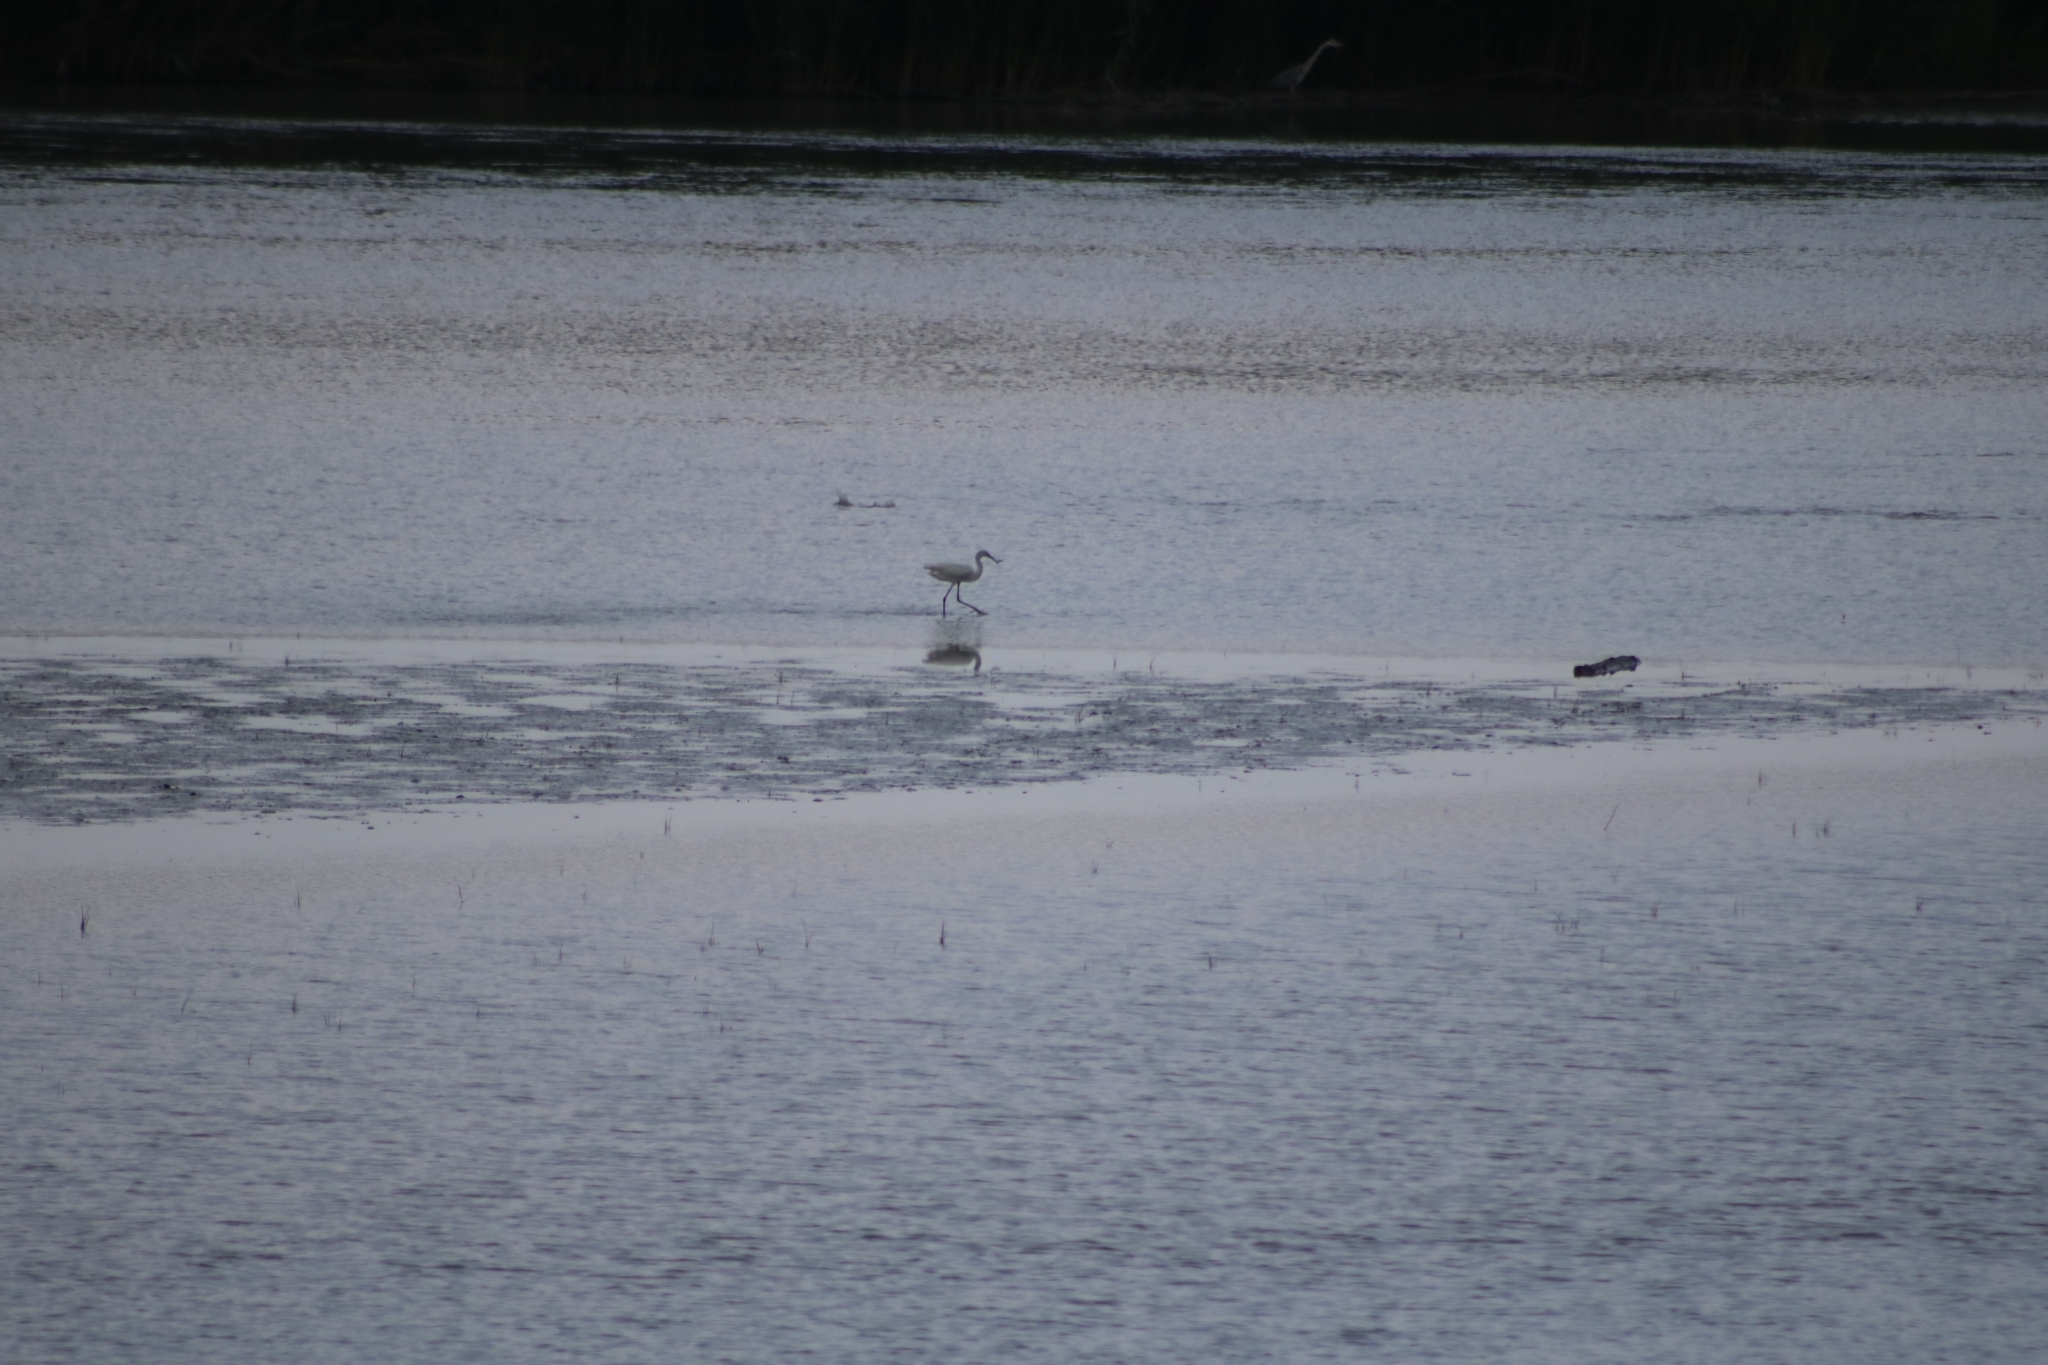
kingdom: Animalia
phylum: Chordata
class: Aves
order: Pelecaniformes
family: Ardeidae
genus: Egretta
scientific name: Egretta garzetta
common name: Little egret
